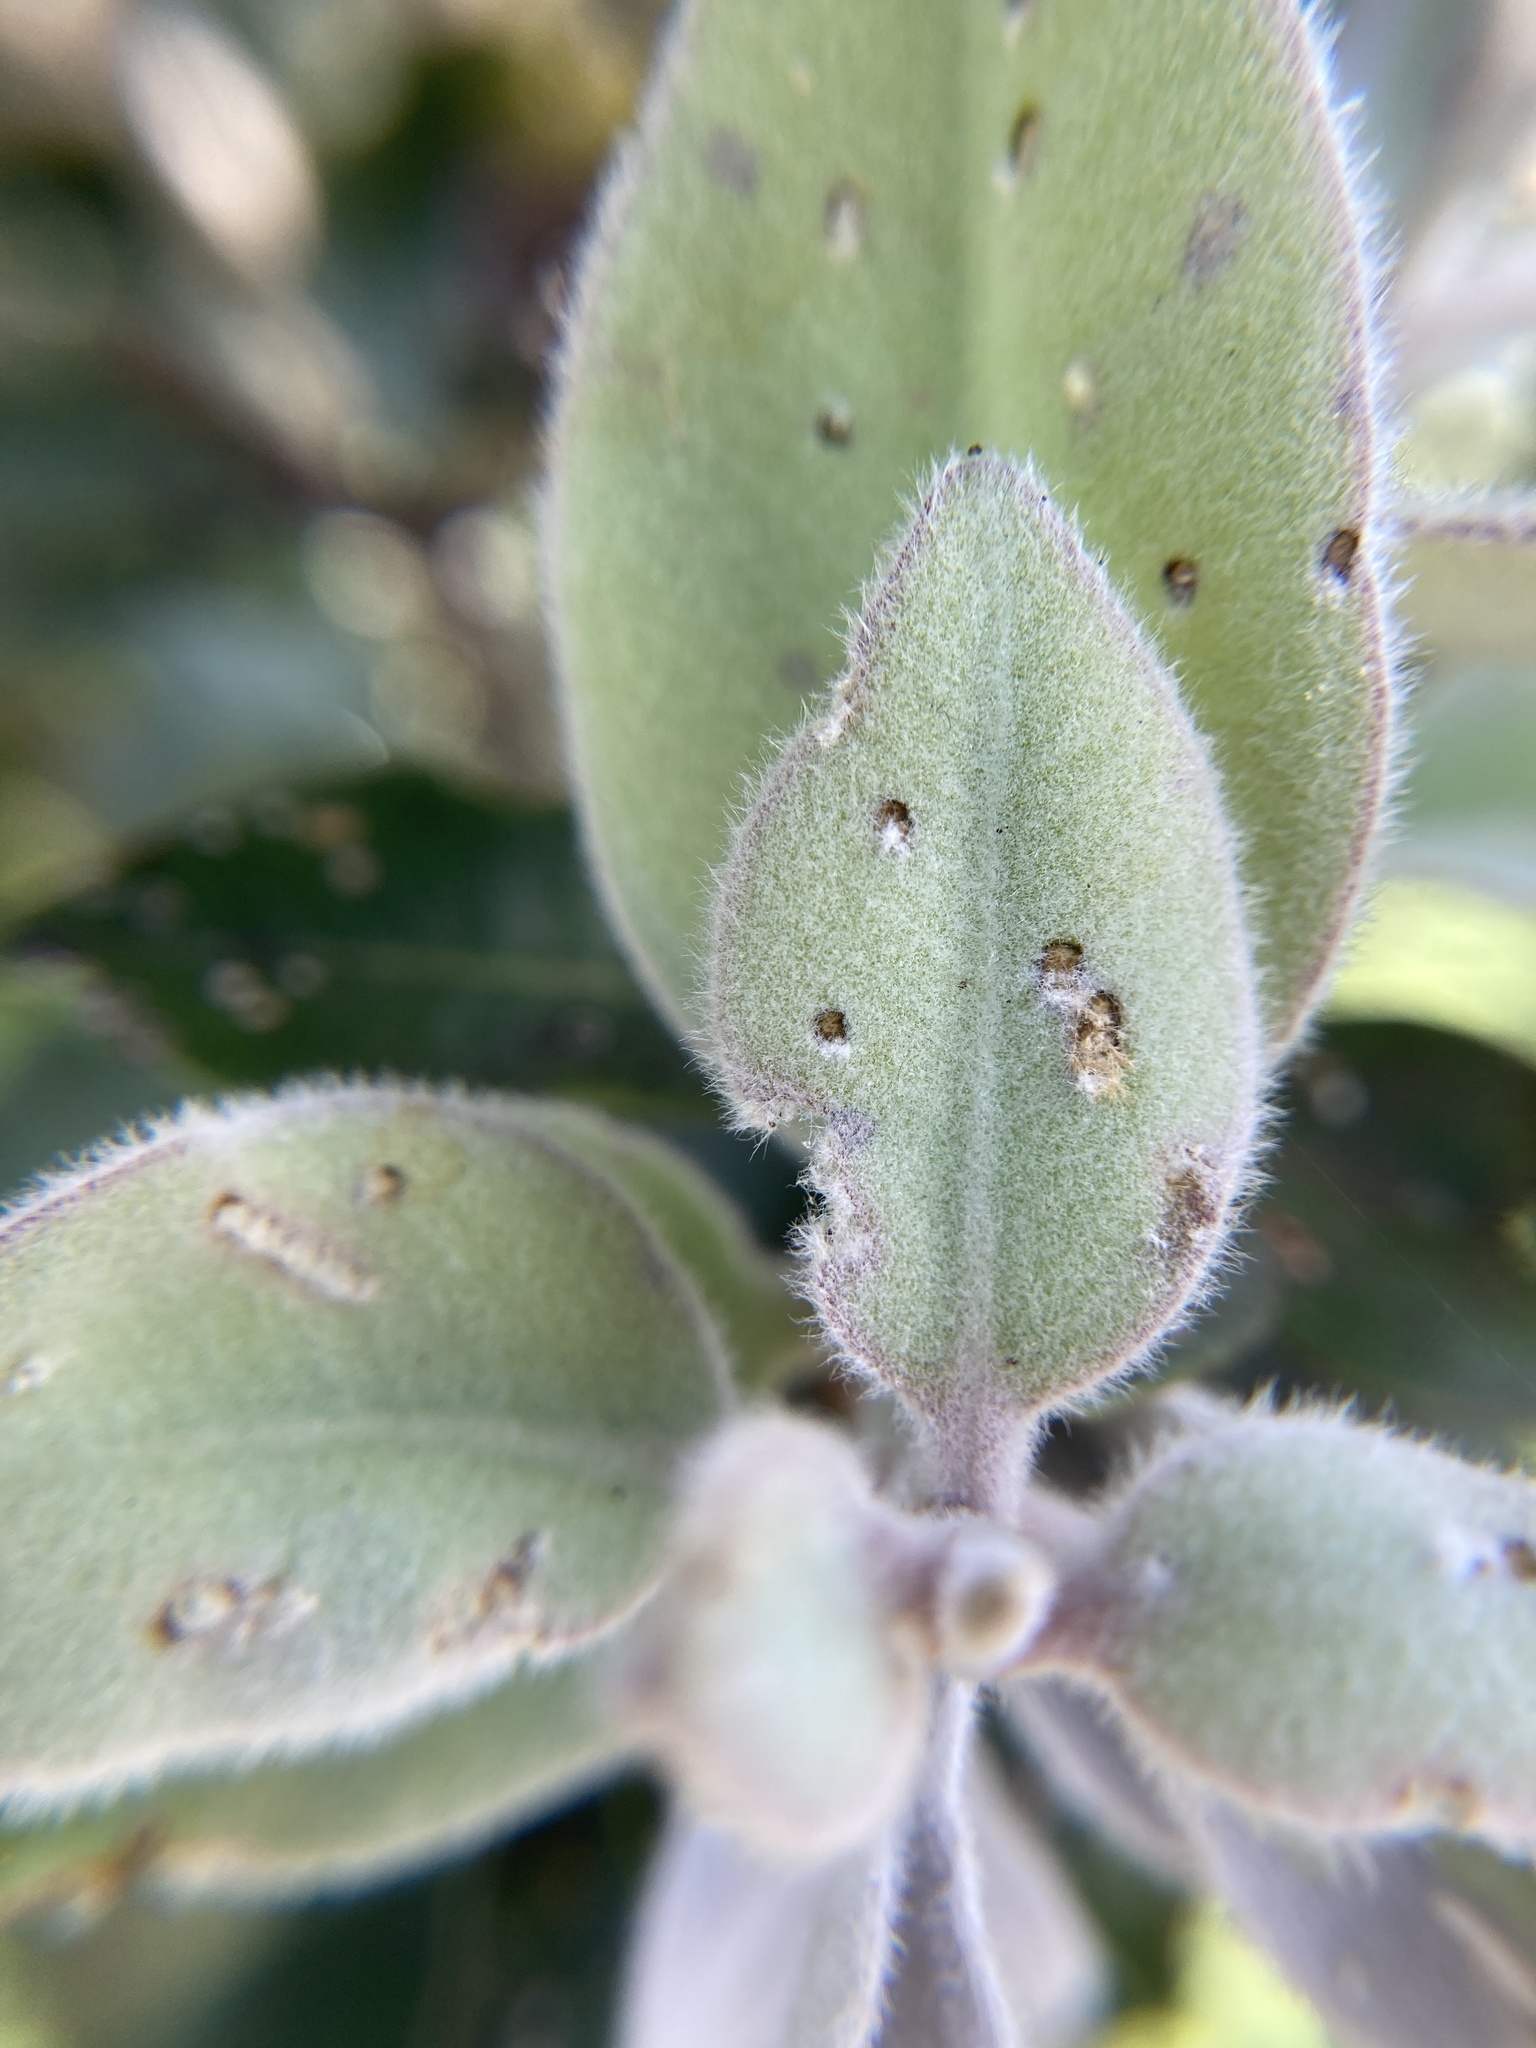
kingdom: Animalia
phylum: Arthropoda
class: Insecta
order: Coleoptera
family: Curculionidae
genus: Neomycta
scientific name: Neomycta rubida
